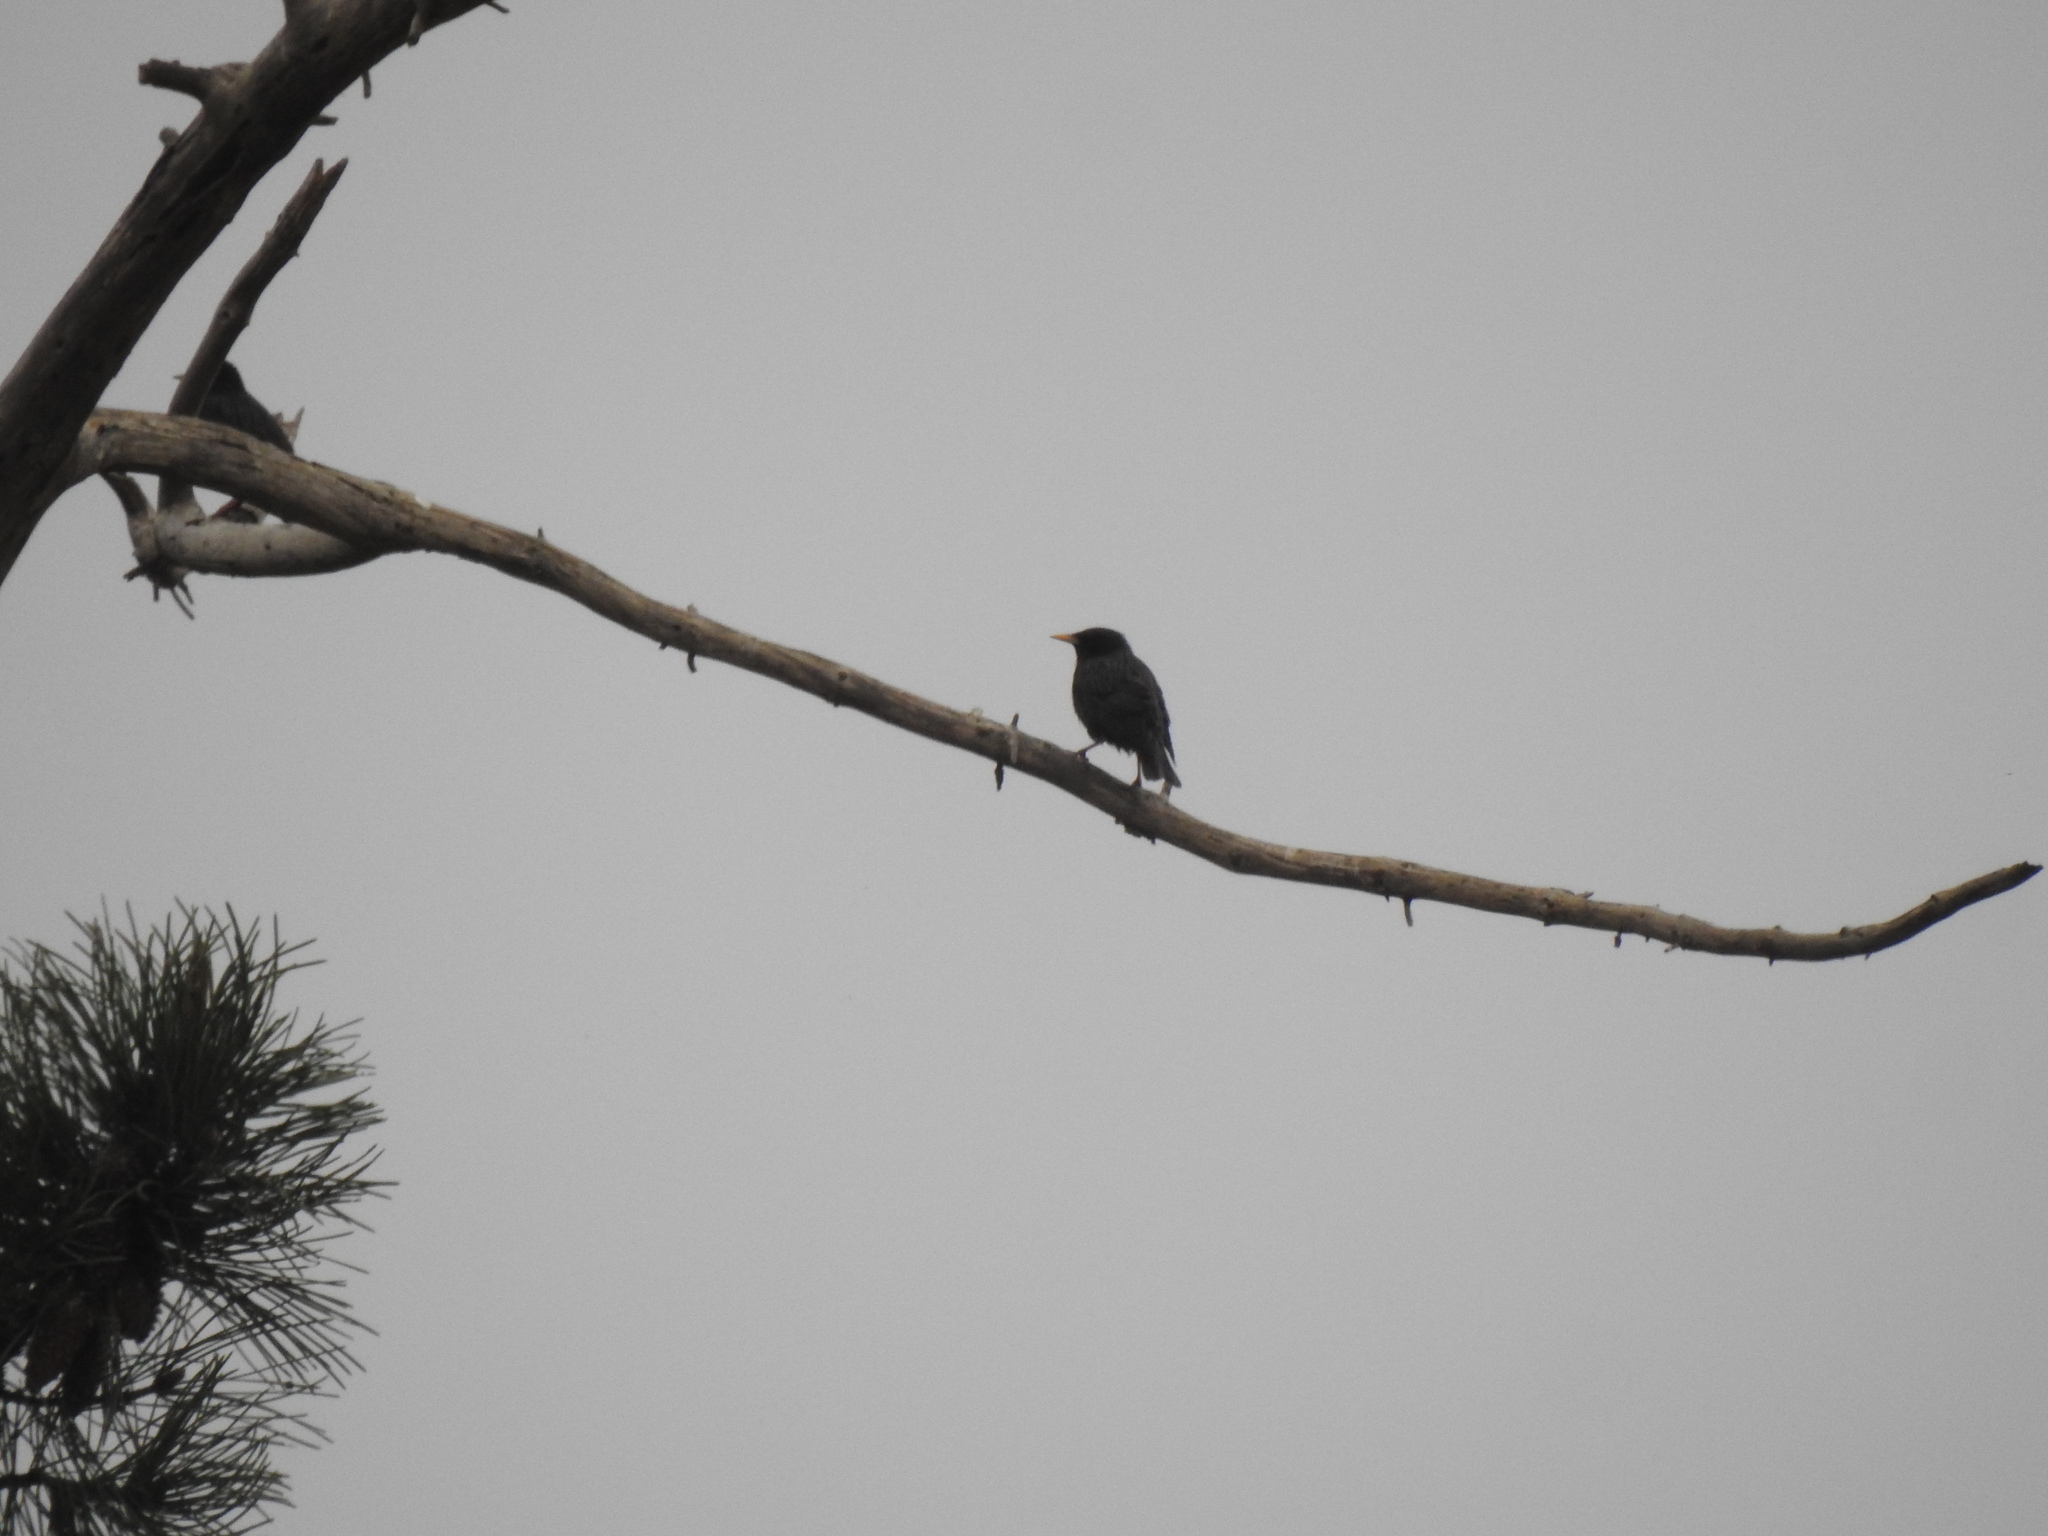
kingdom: Animalia
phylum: Chordata
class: Aves
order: Passeriformes
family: Sturnidae
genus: Sturnus
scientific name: Sturnus unicolor
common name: Spotless starling
